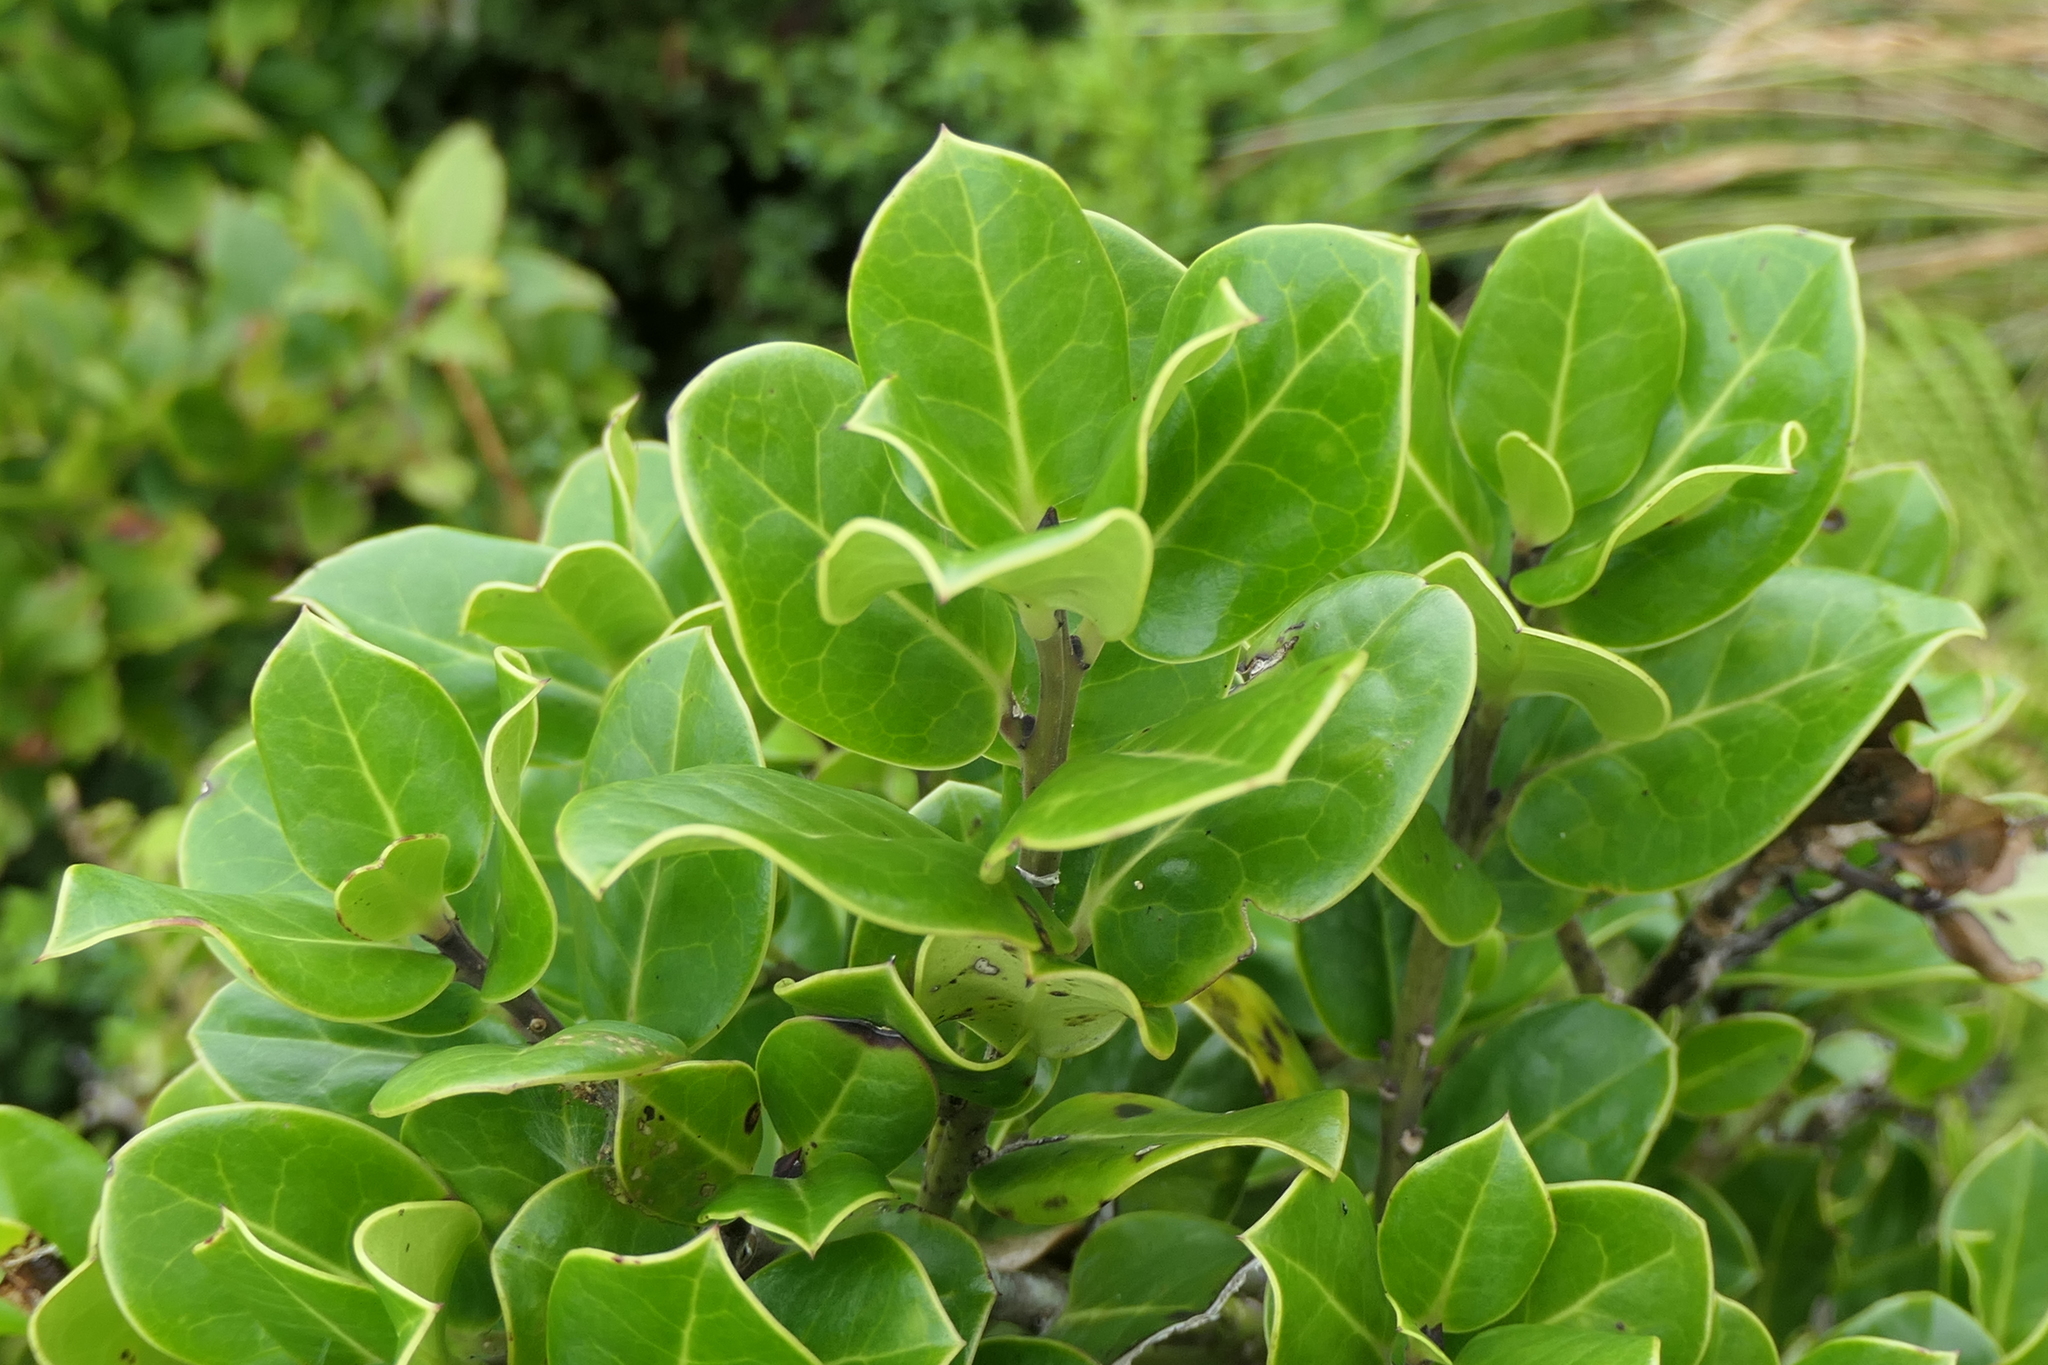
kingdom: Plantae
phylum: Tracheophyta
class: Magnoliopsida
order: Aquifoliales
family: Aquifoliaceae
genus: Ilex
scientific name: Ilex perado
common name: Madeira holly
